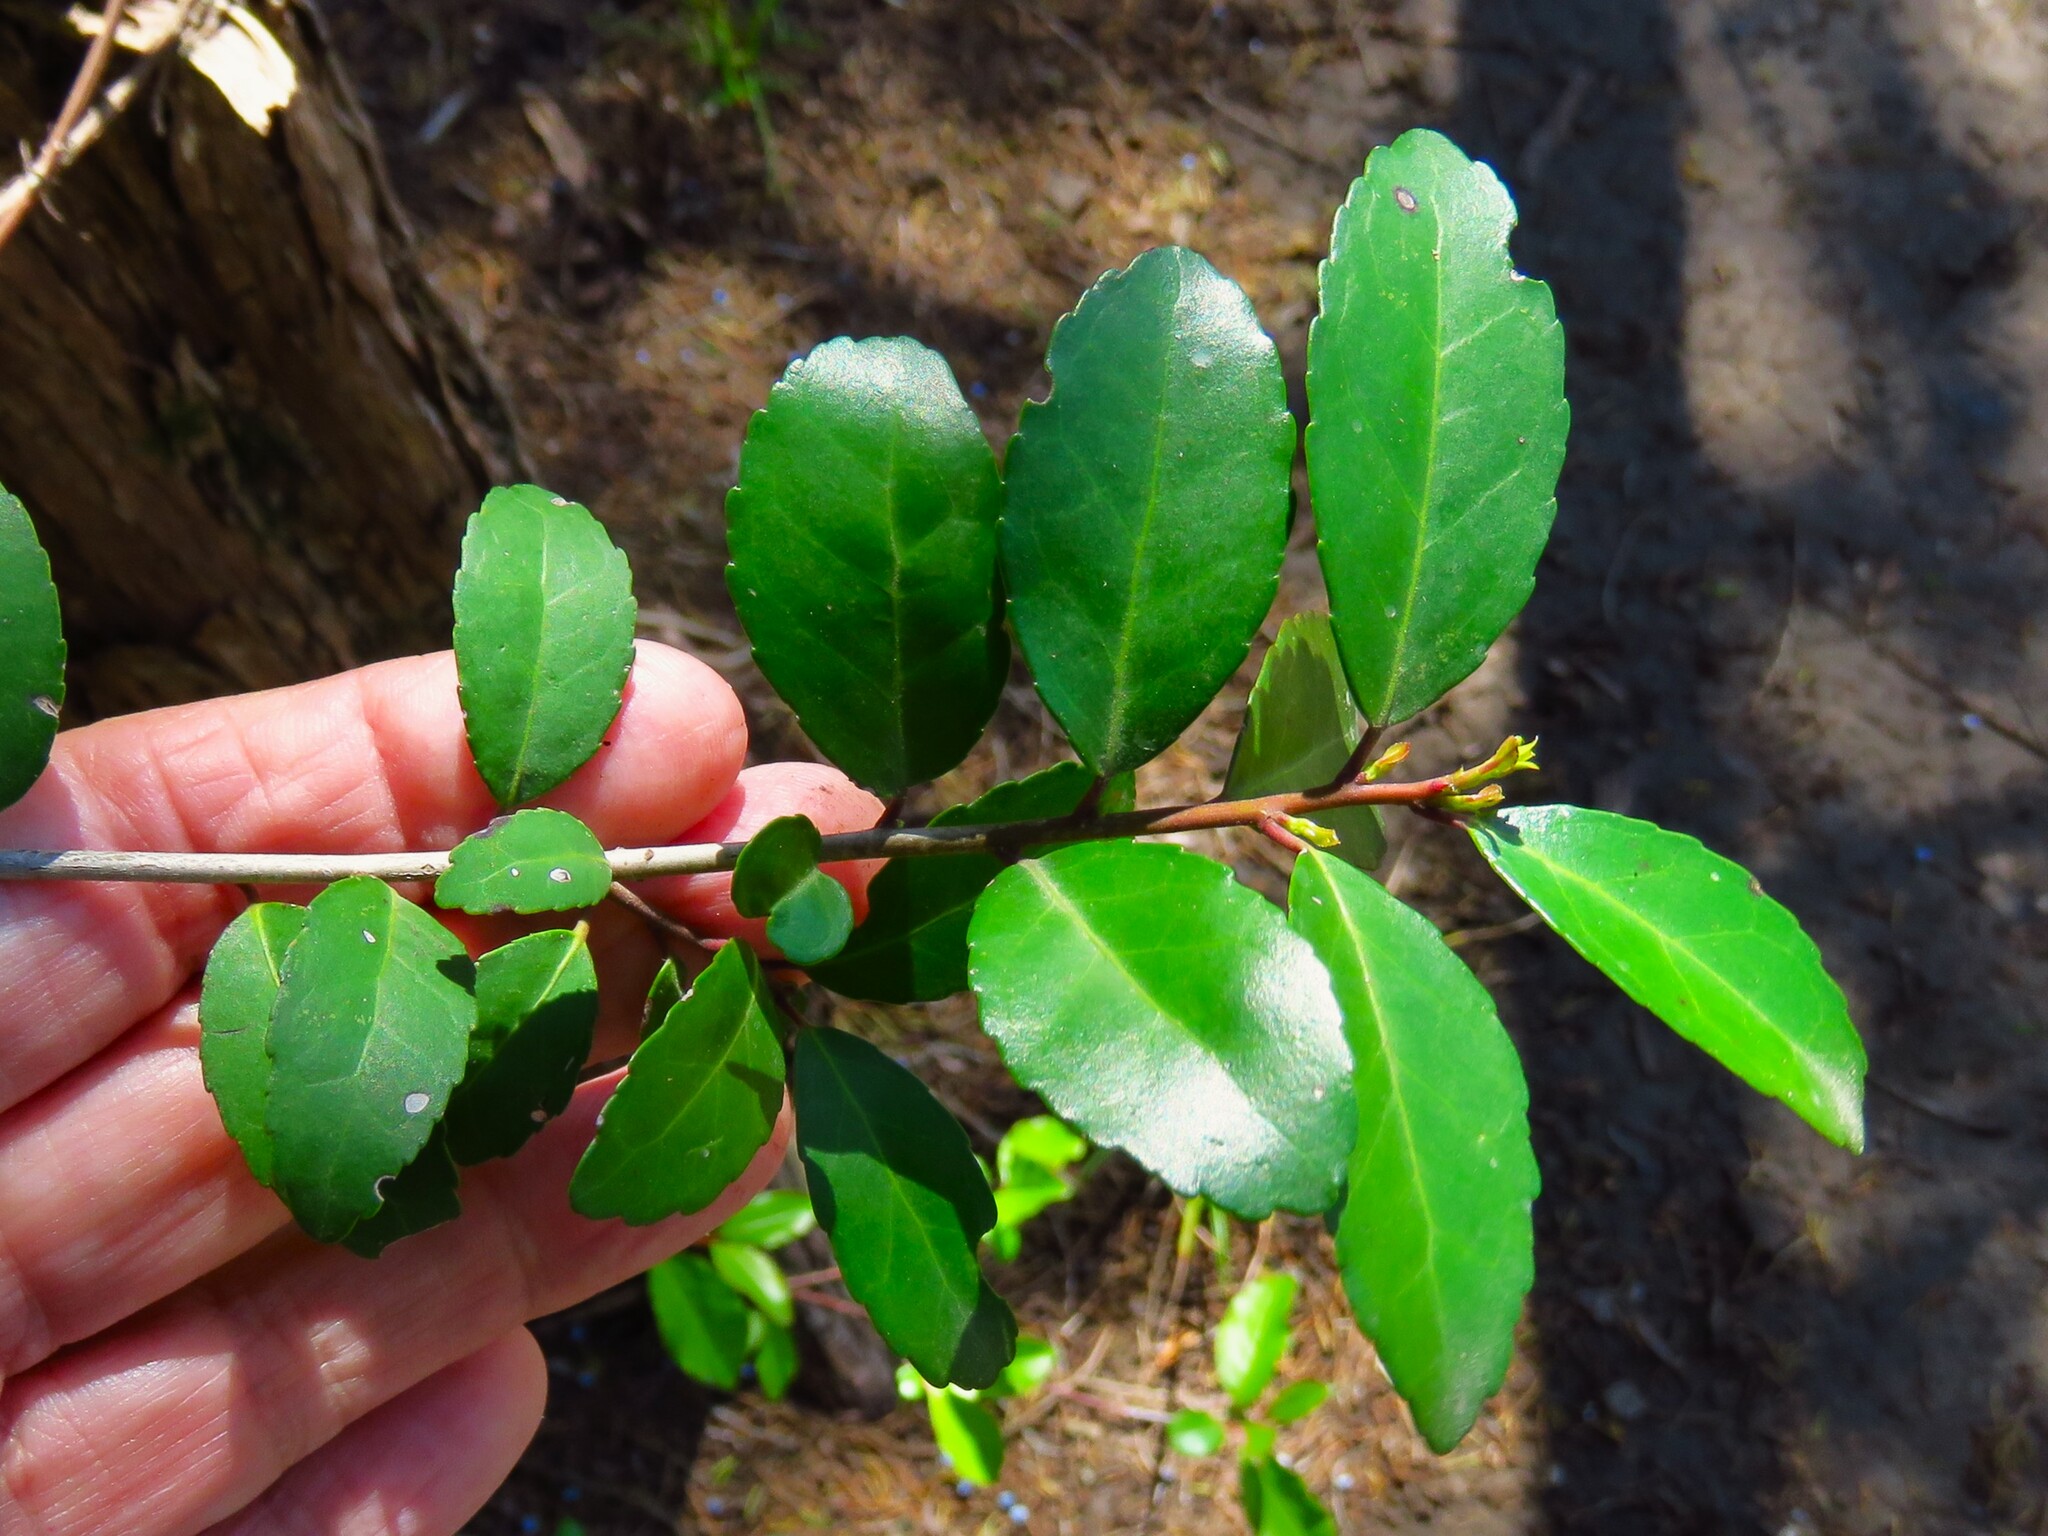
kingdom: Plantae
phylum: Tracheophyta
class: Magnoliopsida
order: Aquifoliales
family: Aquifoliaceae
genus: Ilex
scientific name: Ilex vomitoria
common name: Yaupon holly
